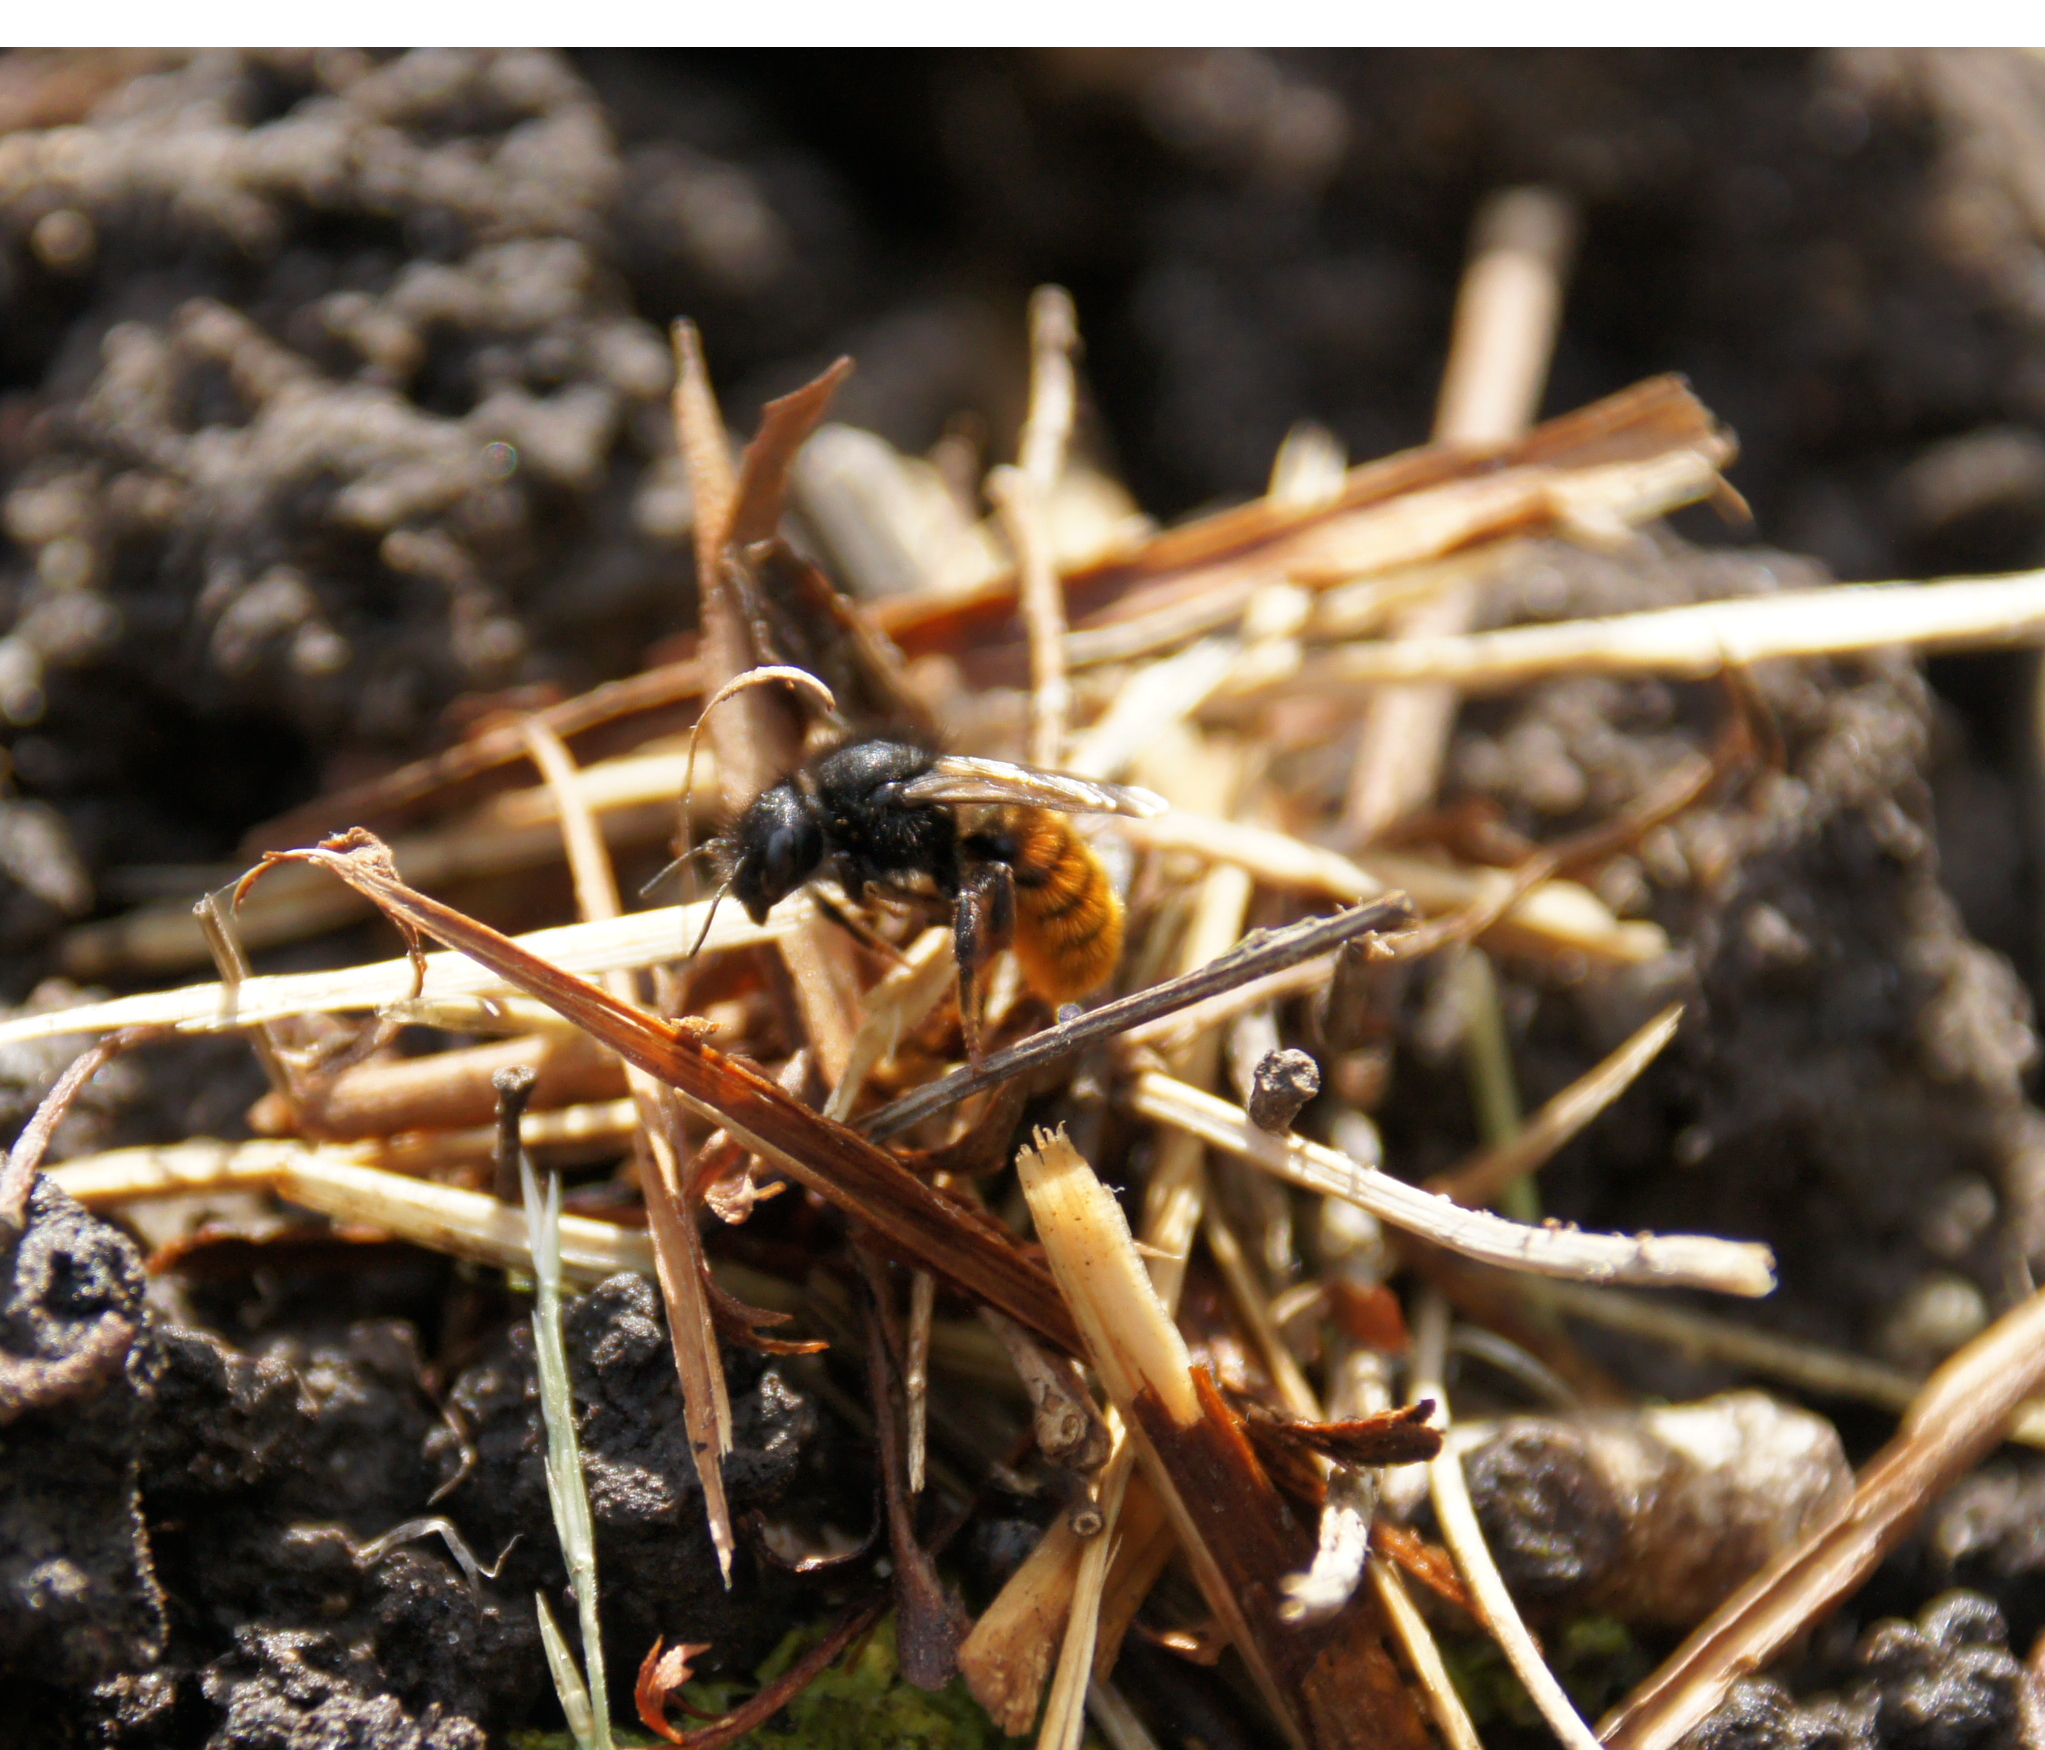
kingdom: Animalia
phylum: Arthropoda
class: Insecta
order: Hymenoptera
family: Megachilidae
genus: Osmia
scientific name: Osmia bicolor
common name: Red-tailed mason bee
